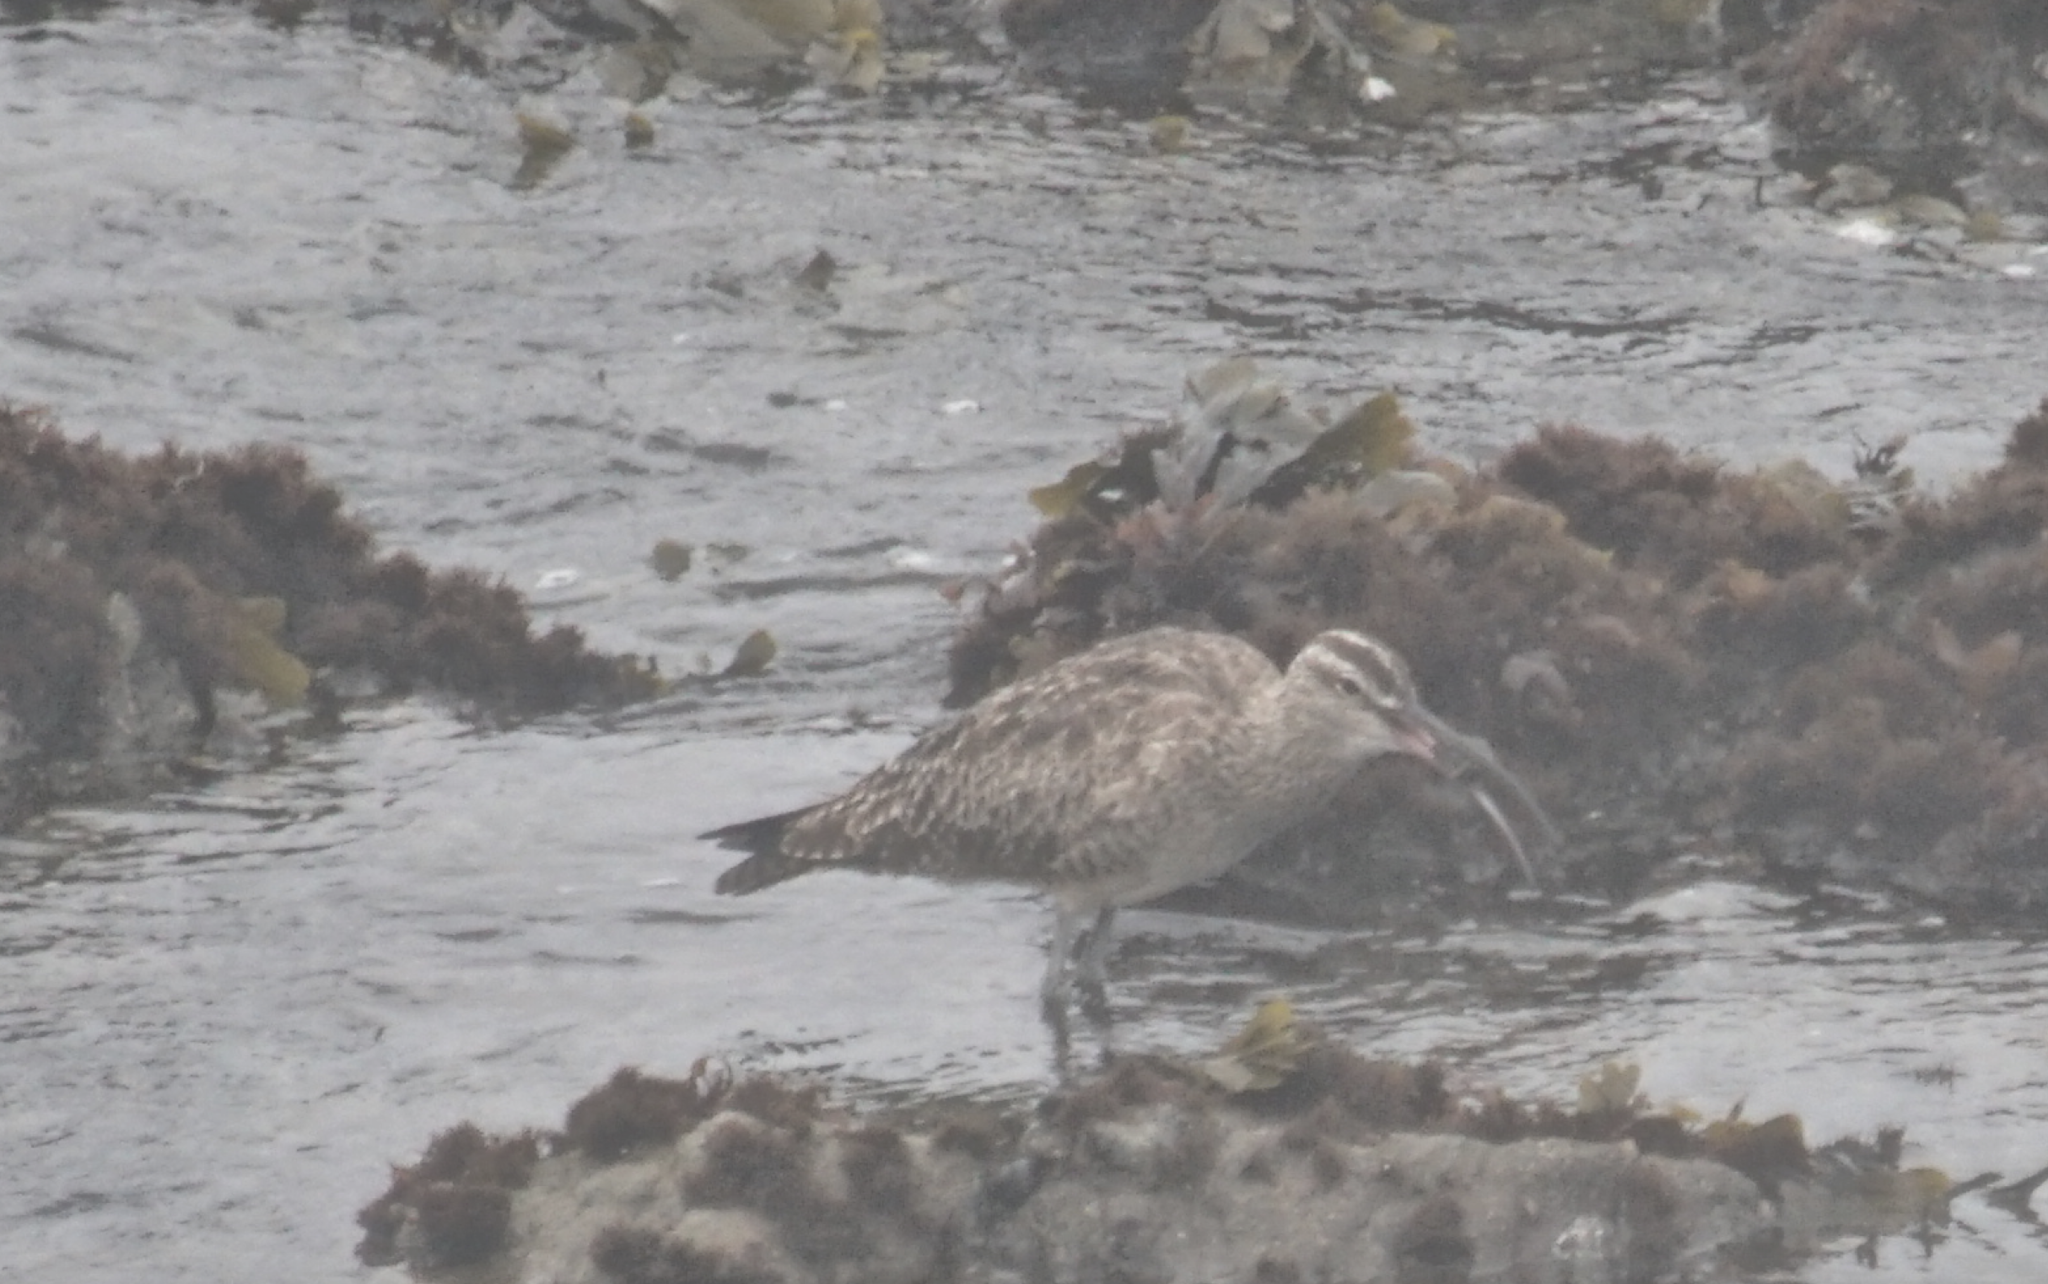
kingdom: Animalia
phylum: Chordata
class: Aves
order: Charadriiformes
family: Scolopacidae
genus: Numenius
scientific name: Numenius phaeopus
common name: Whimbrel
